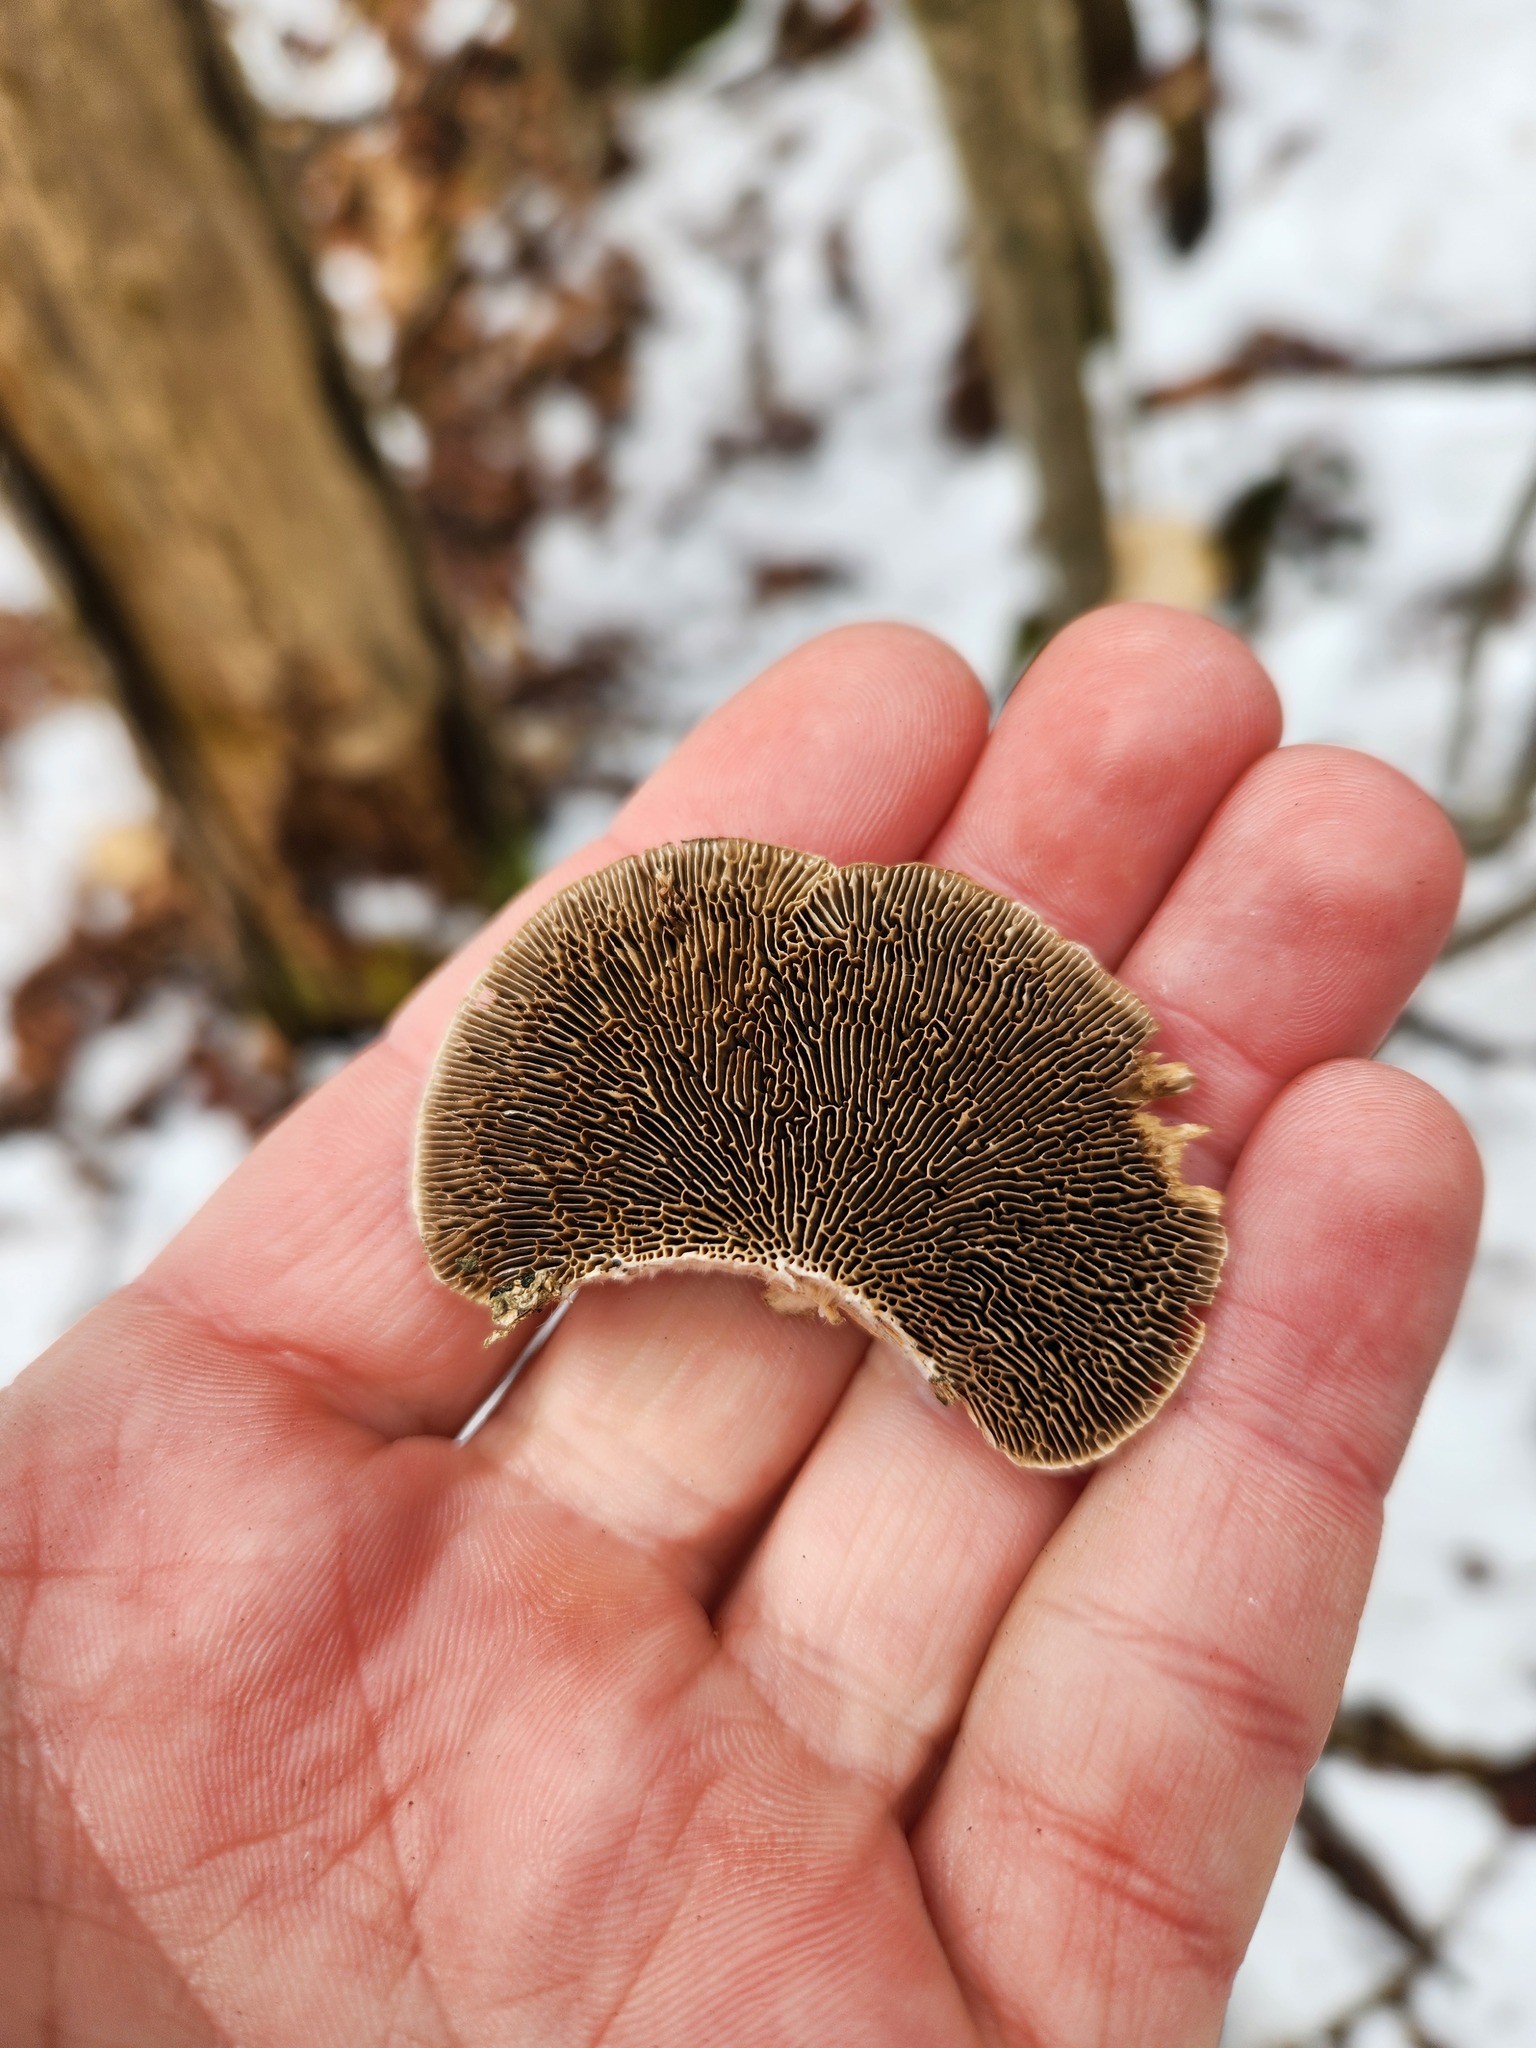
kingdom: Fungi
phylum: Basidiomycota
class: Agaricomycetes
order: Polyporales
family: Polyporaceae
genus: Daedaleopsis
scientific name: Daedaleopsis confragosa
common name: Blushing bracket
